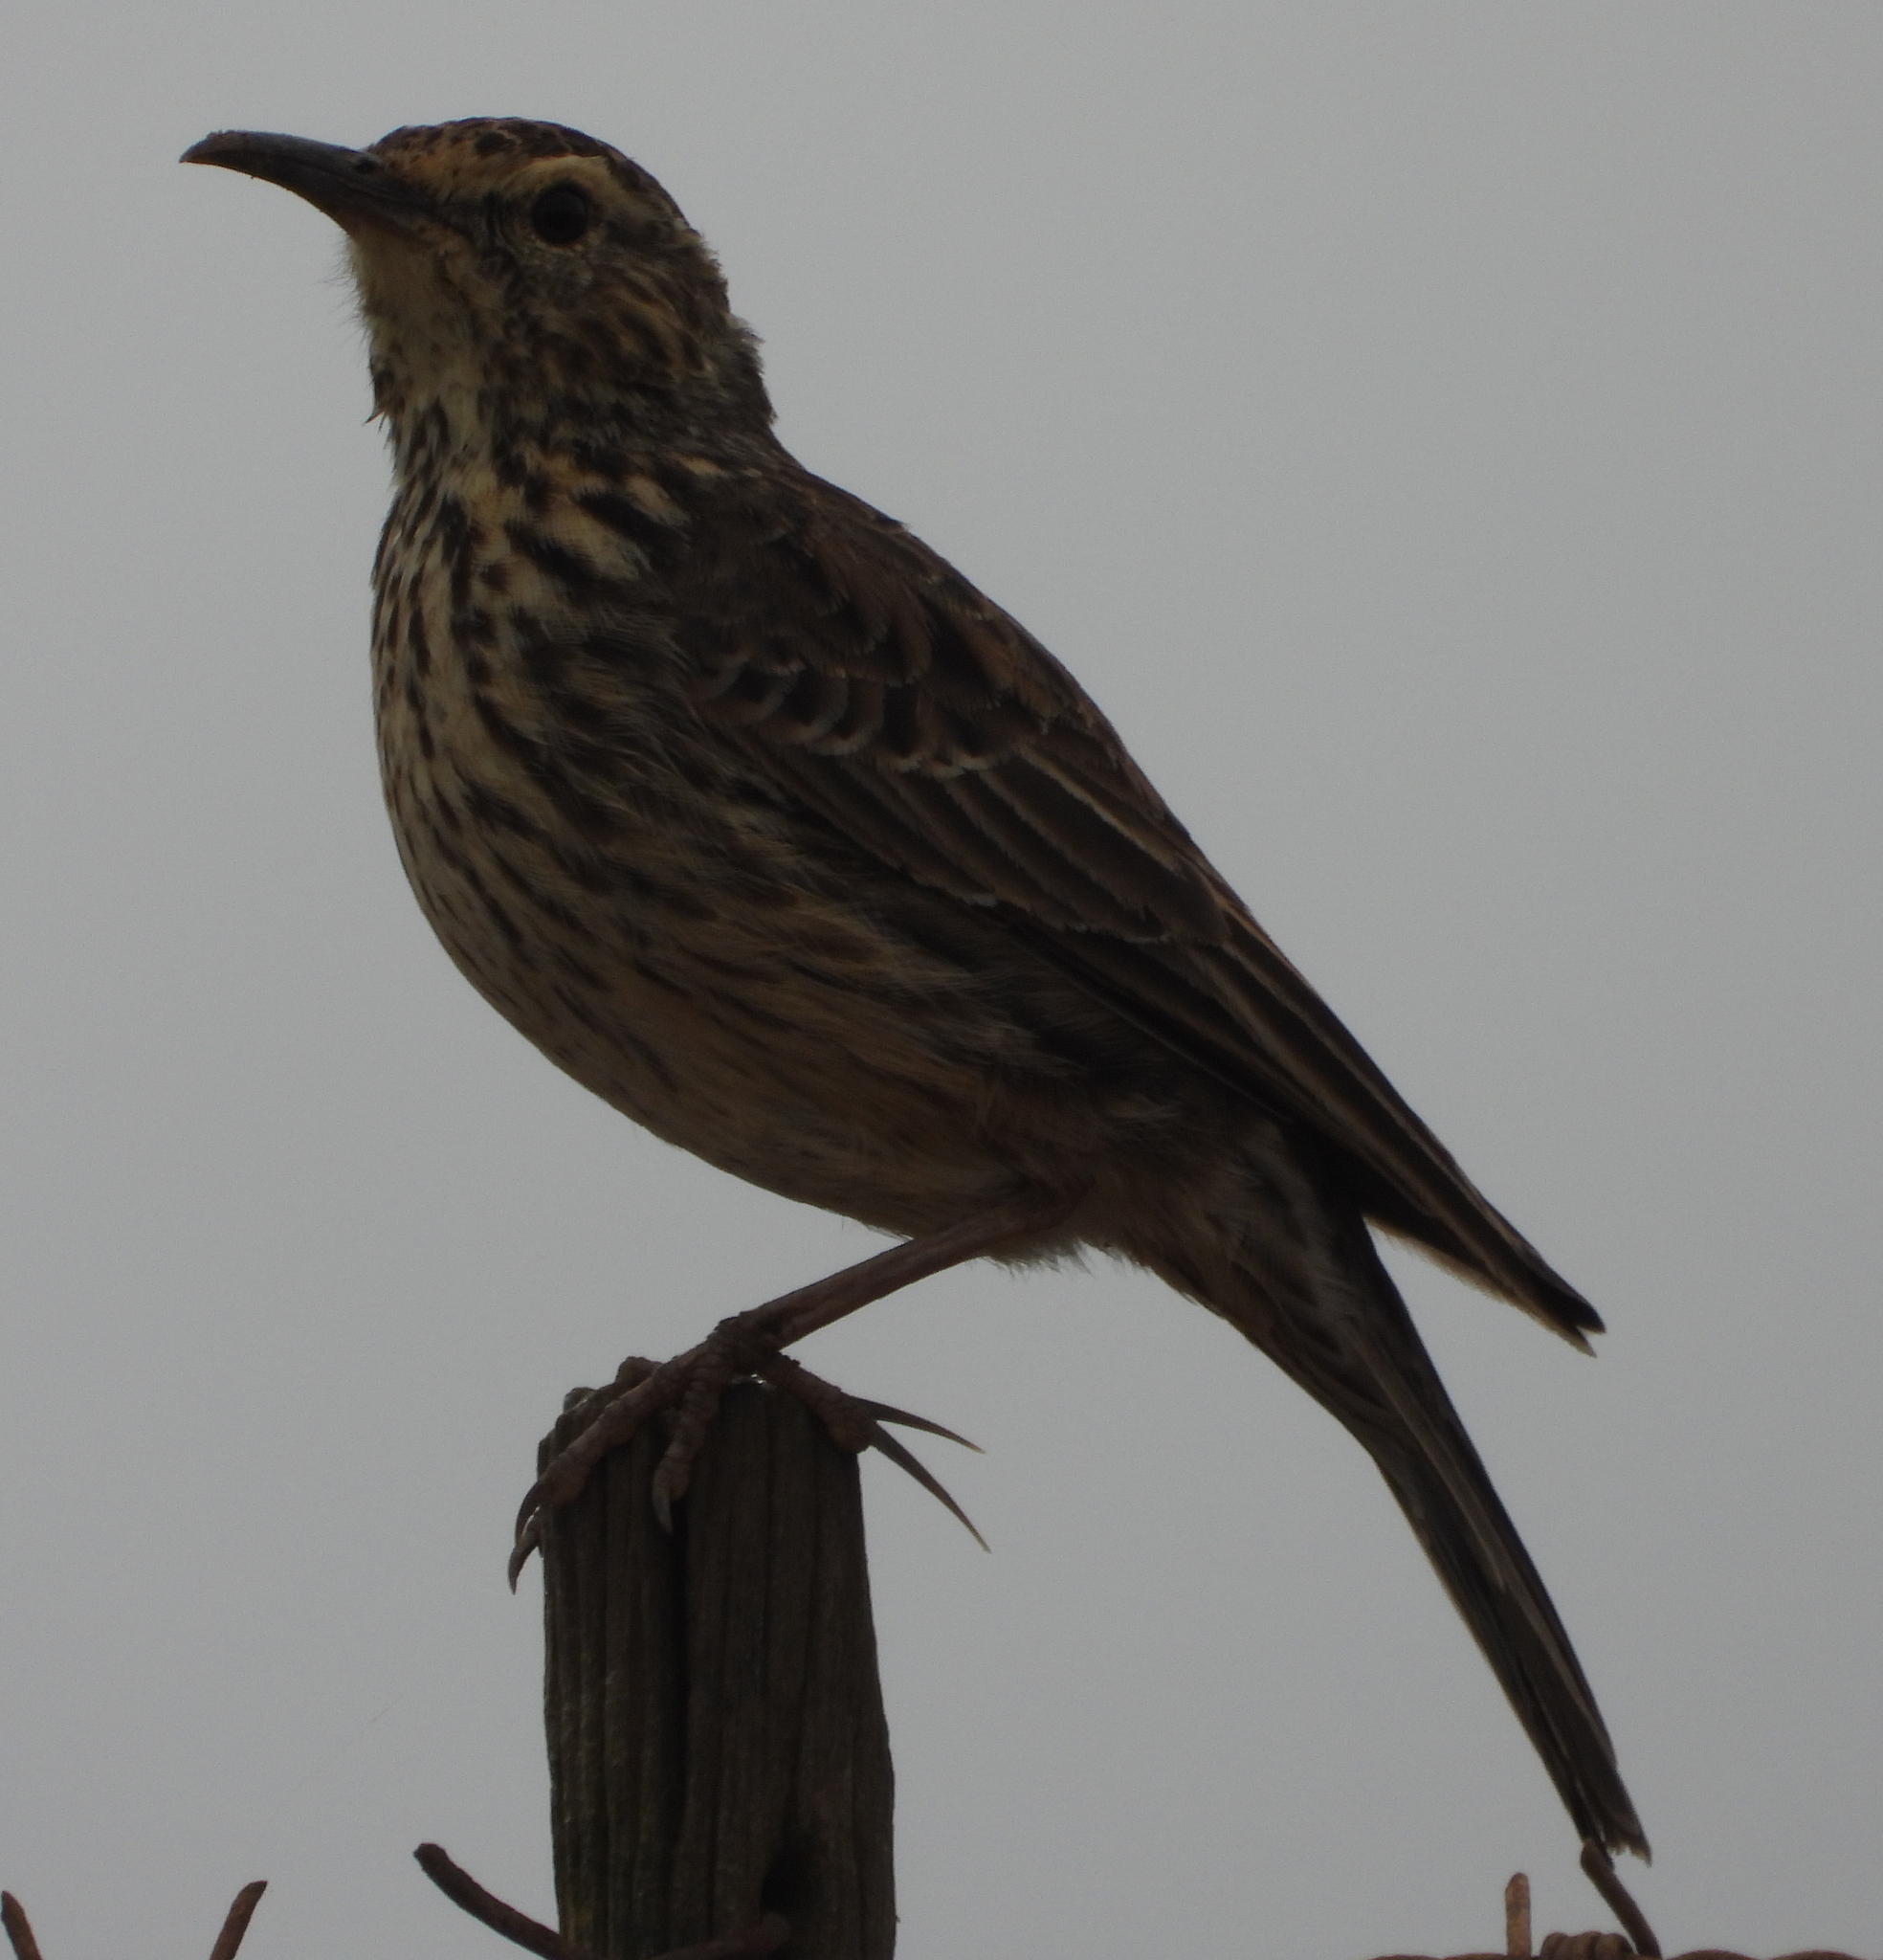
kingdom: Animalia
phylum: Chordata
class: Aves
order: Passeriformes
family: Alaudidae
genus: Certhilauda
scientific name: Certhilauda curvirostris
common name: Cape long-billed lark
